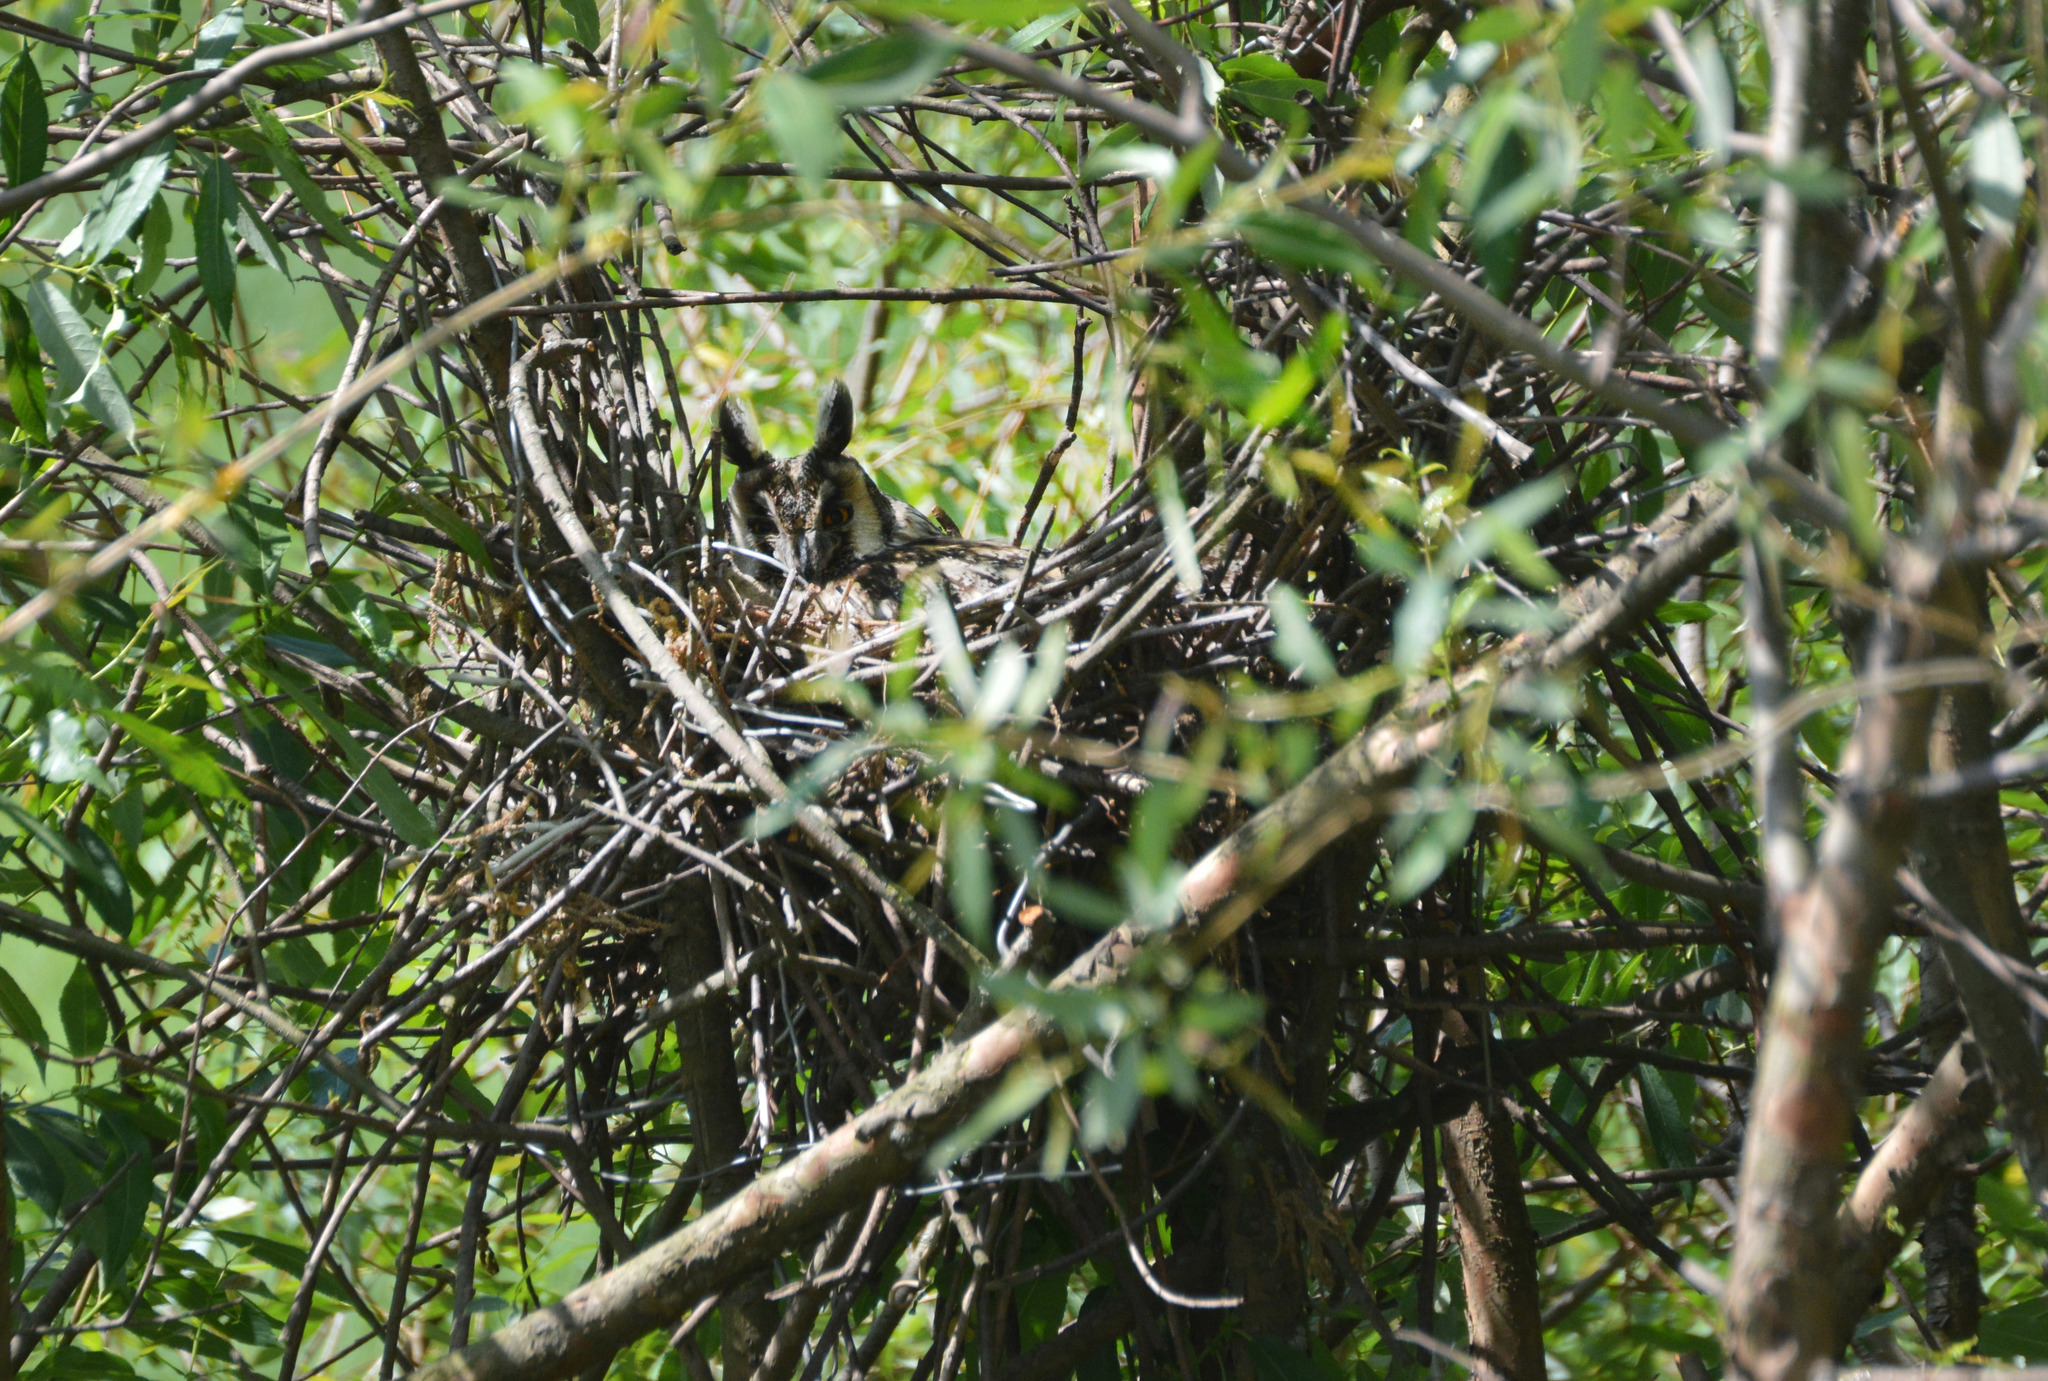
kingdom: Animalia
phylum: Chordata
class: Aves
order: Strigiformes
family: Strigidae
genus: Asio
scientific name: Asio otus
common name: Long-eared owl
